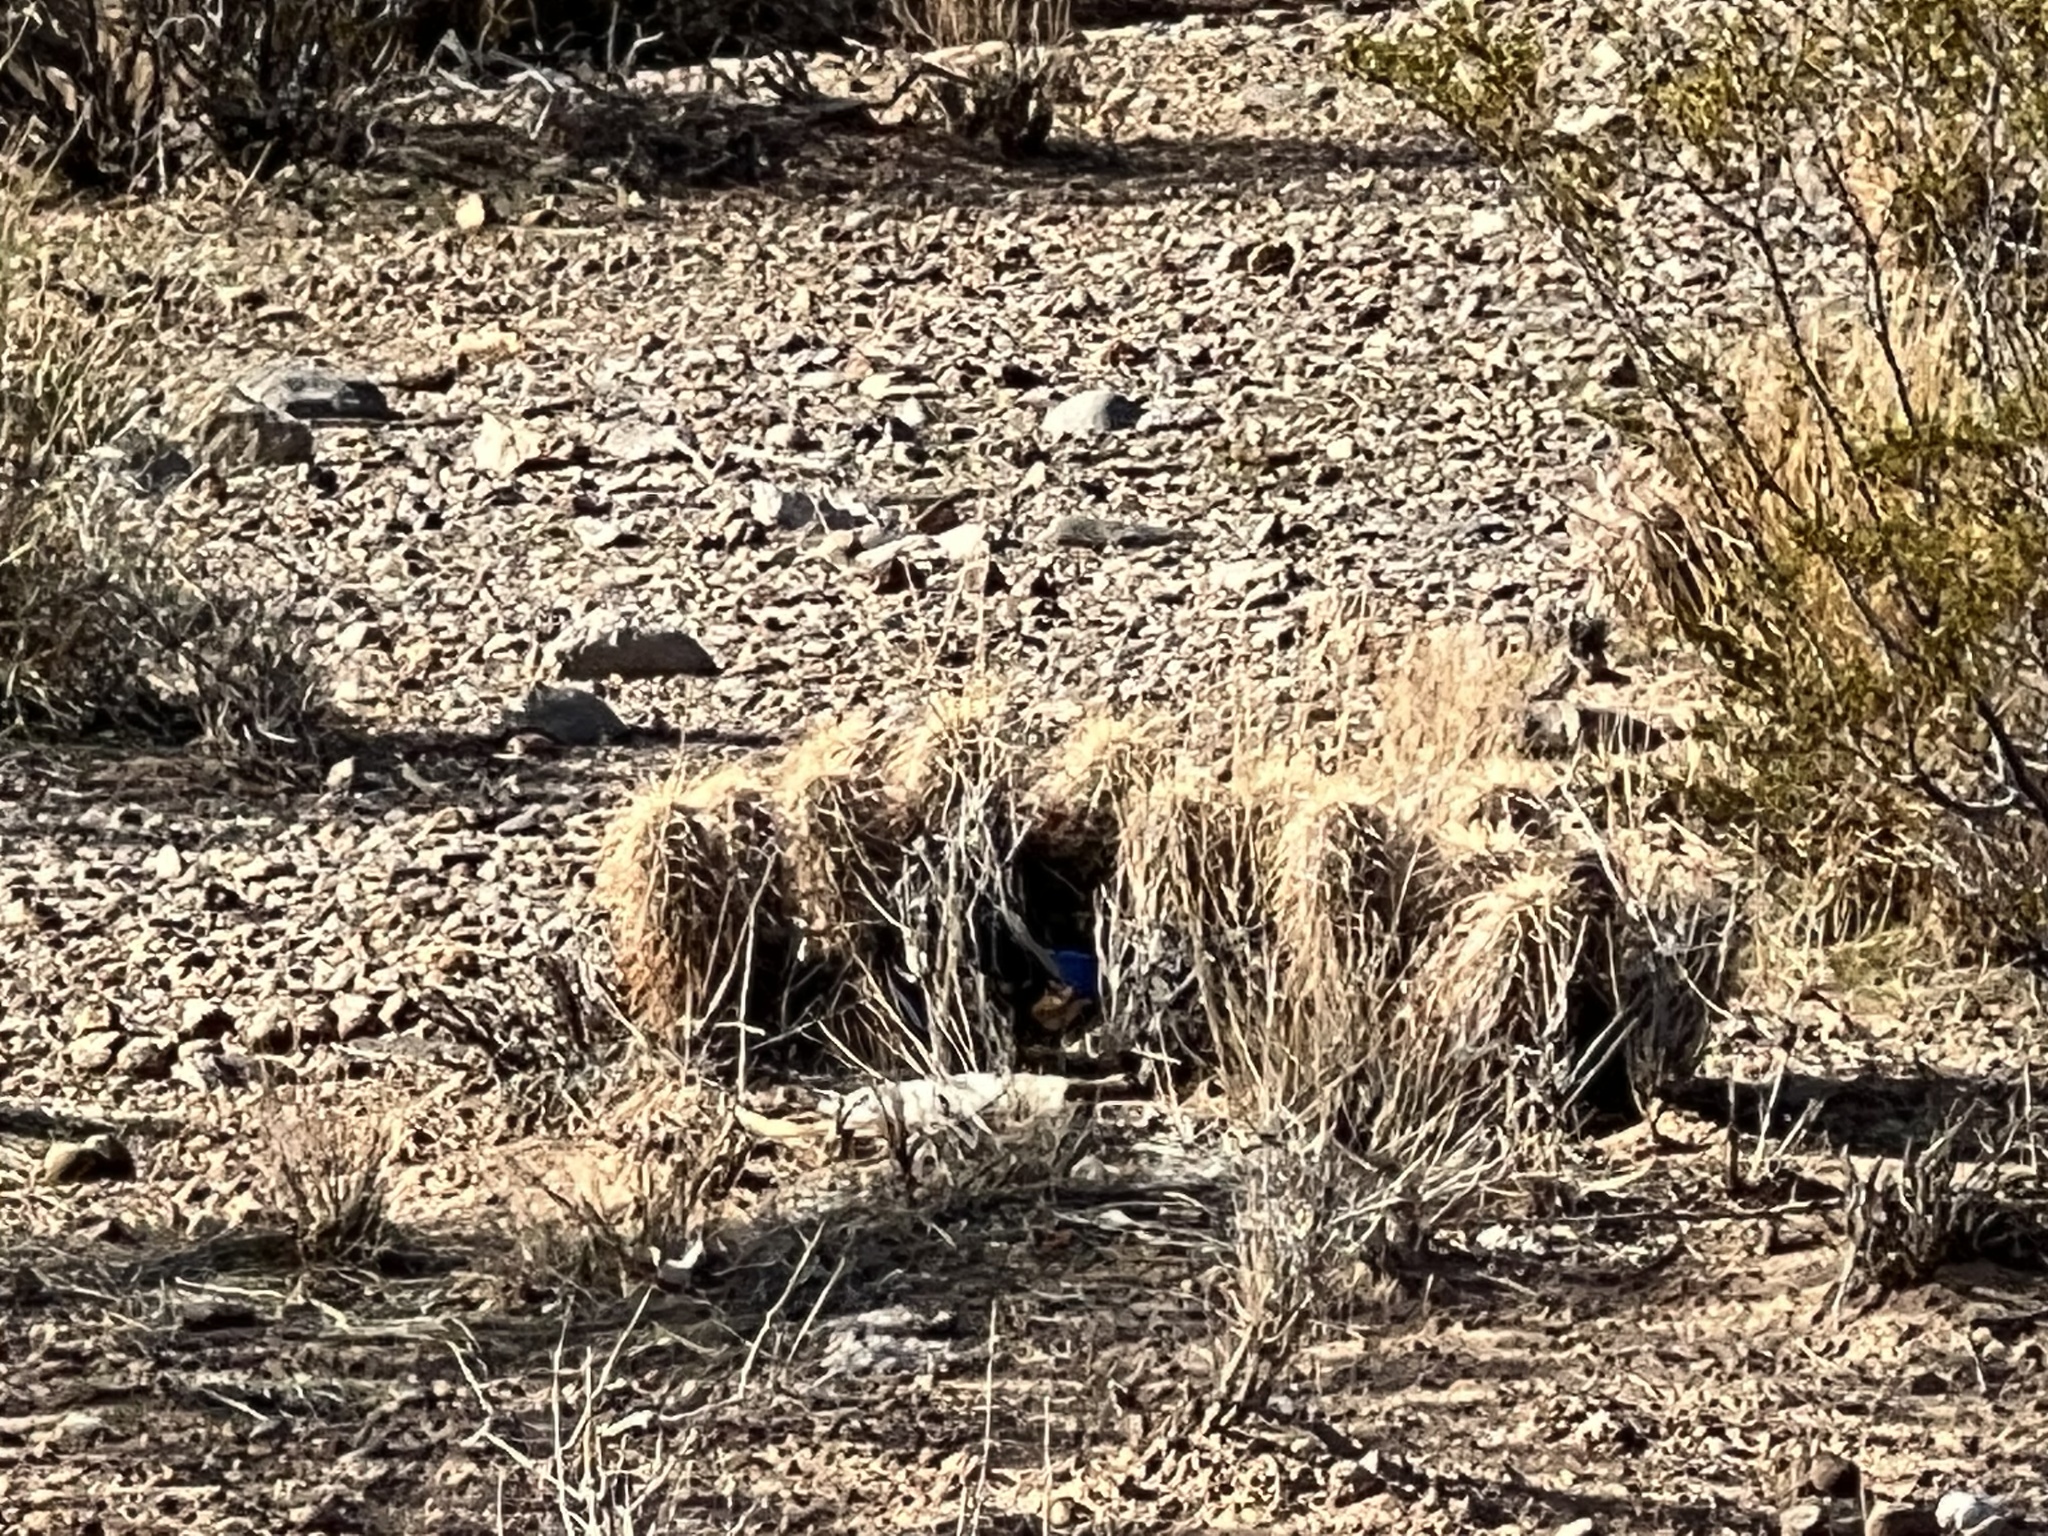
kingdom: Plantae
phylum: Tracheophyta
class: Magnoliopsida
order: Caryophyllales
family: Cactaceae
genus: Echinocereus
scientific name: Echinocereus engelmannii
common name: Engelmann's hedgehog cactus
